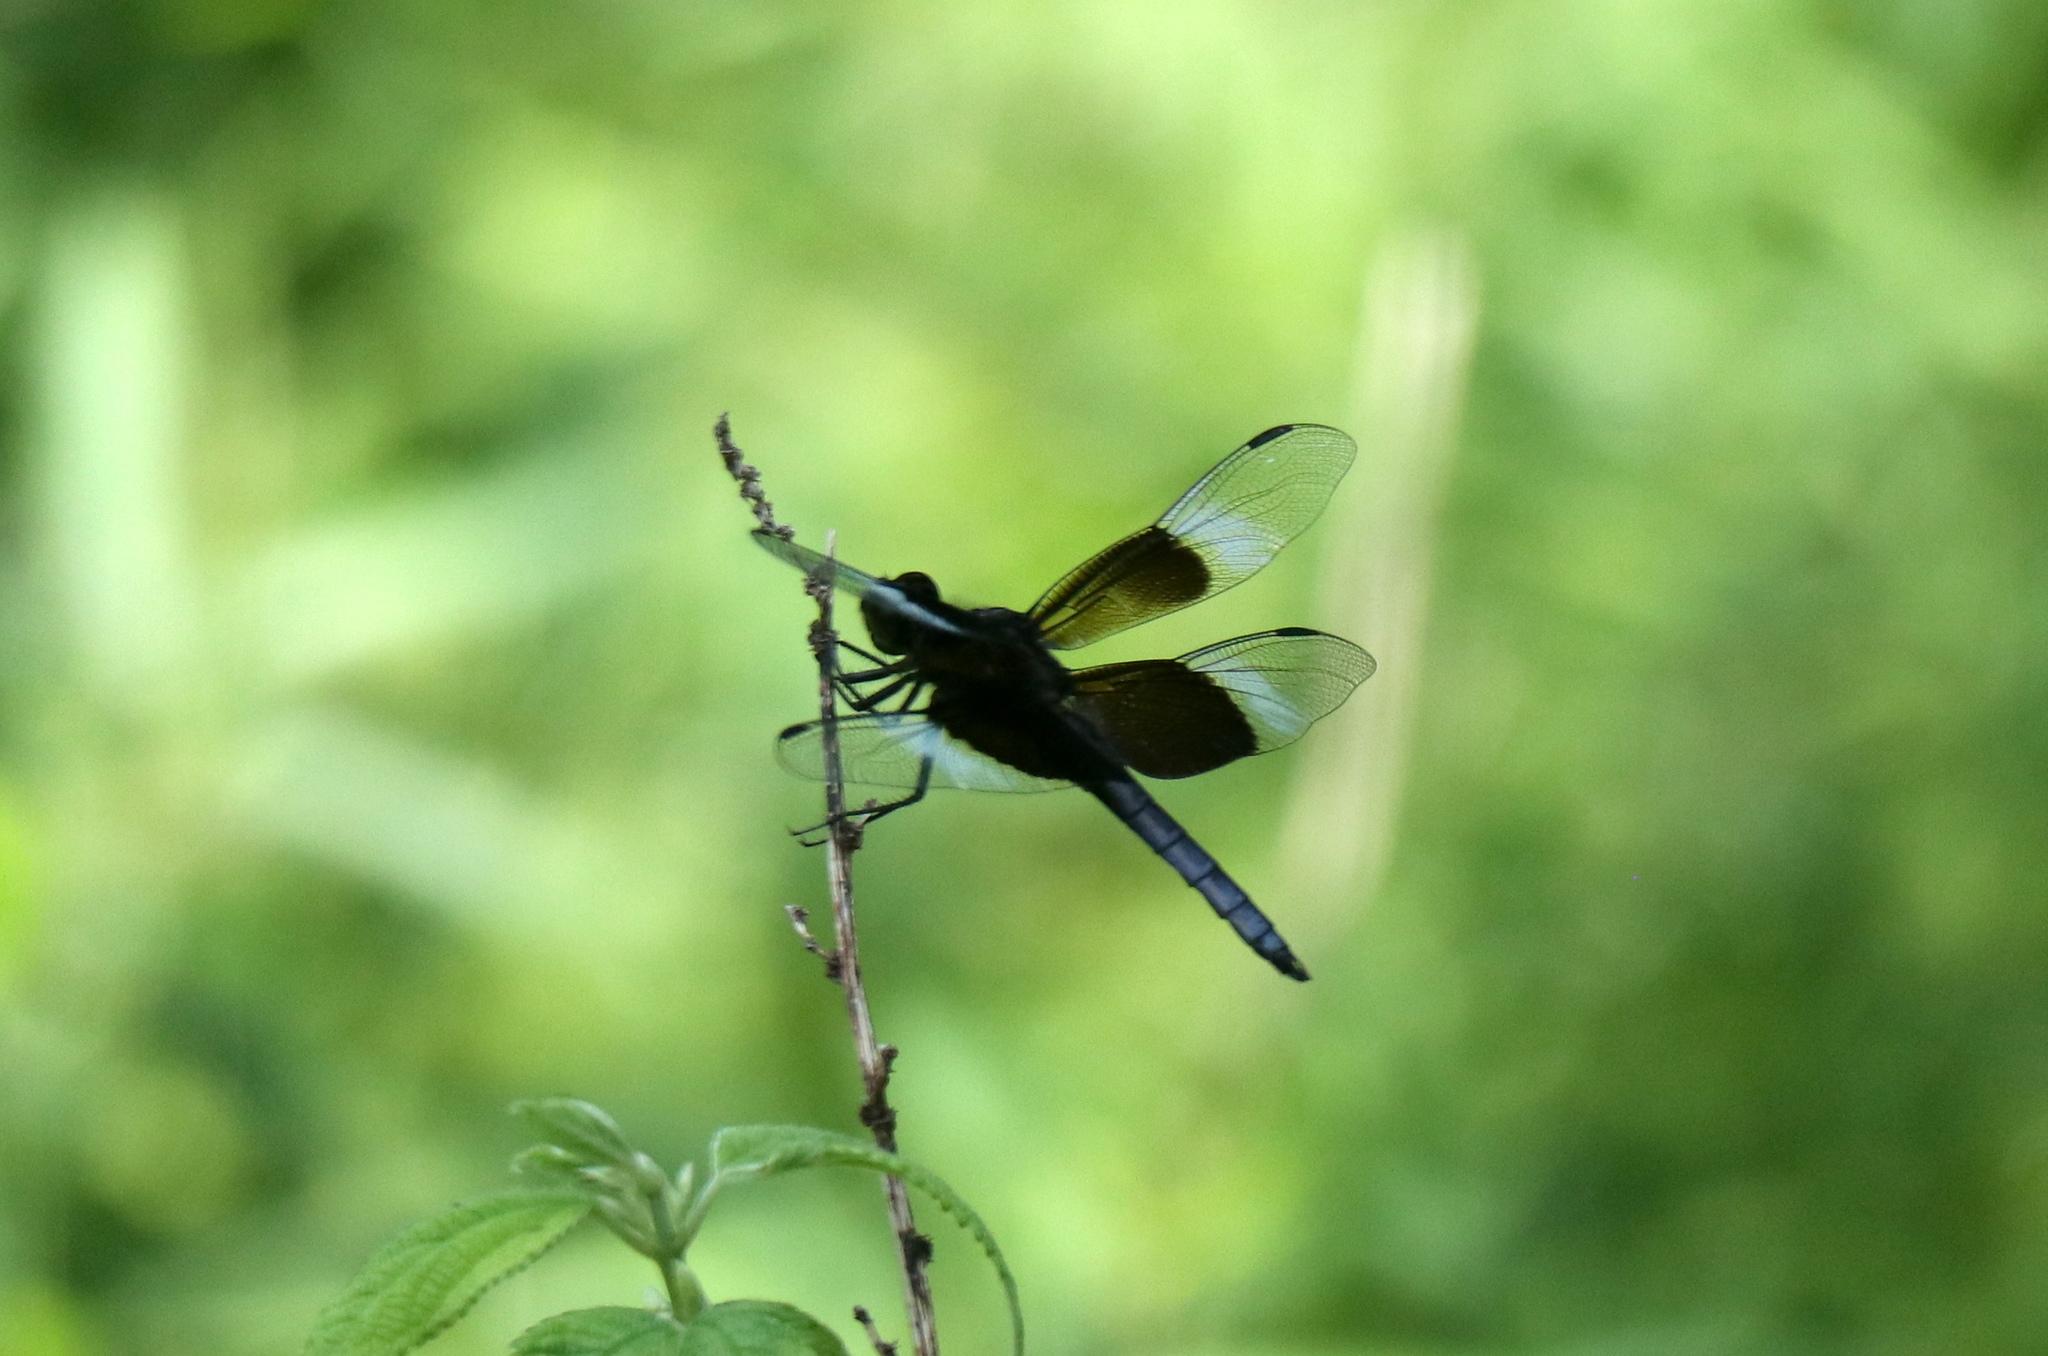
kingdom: Animalia
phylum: Arthropoda
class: Insecta
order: Odonata
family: Libellulidae
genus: Libellula
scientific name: Libellula luctuosa
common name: Widow skimmer
